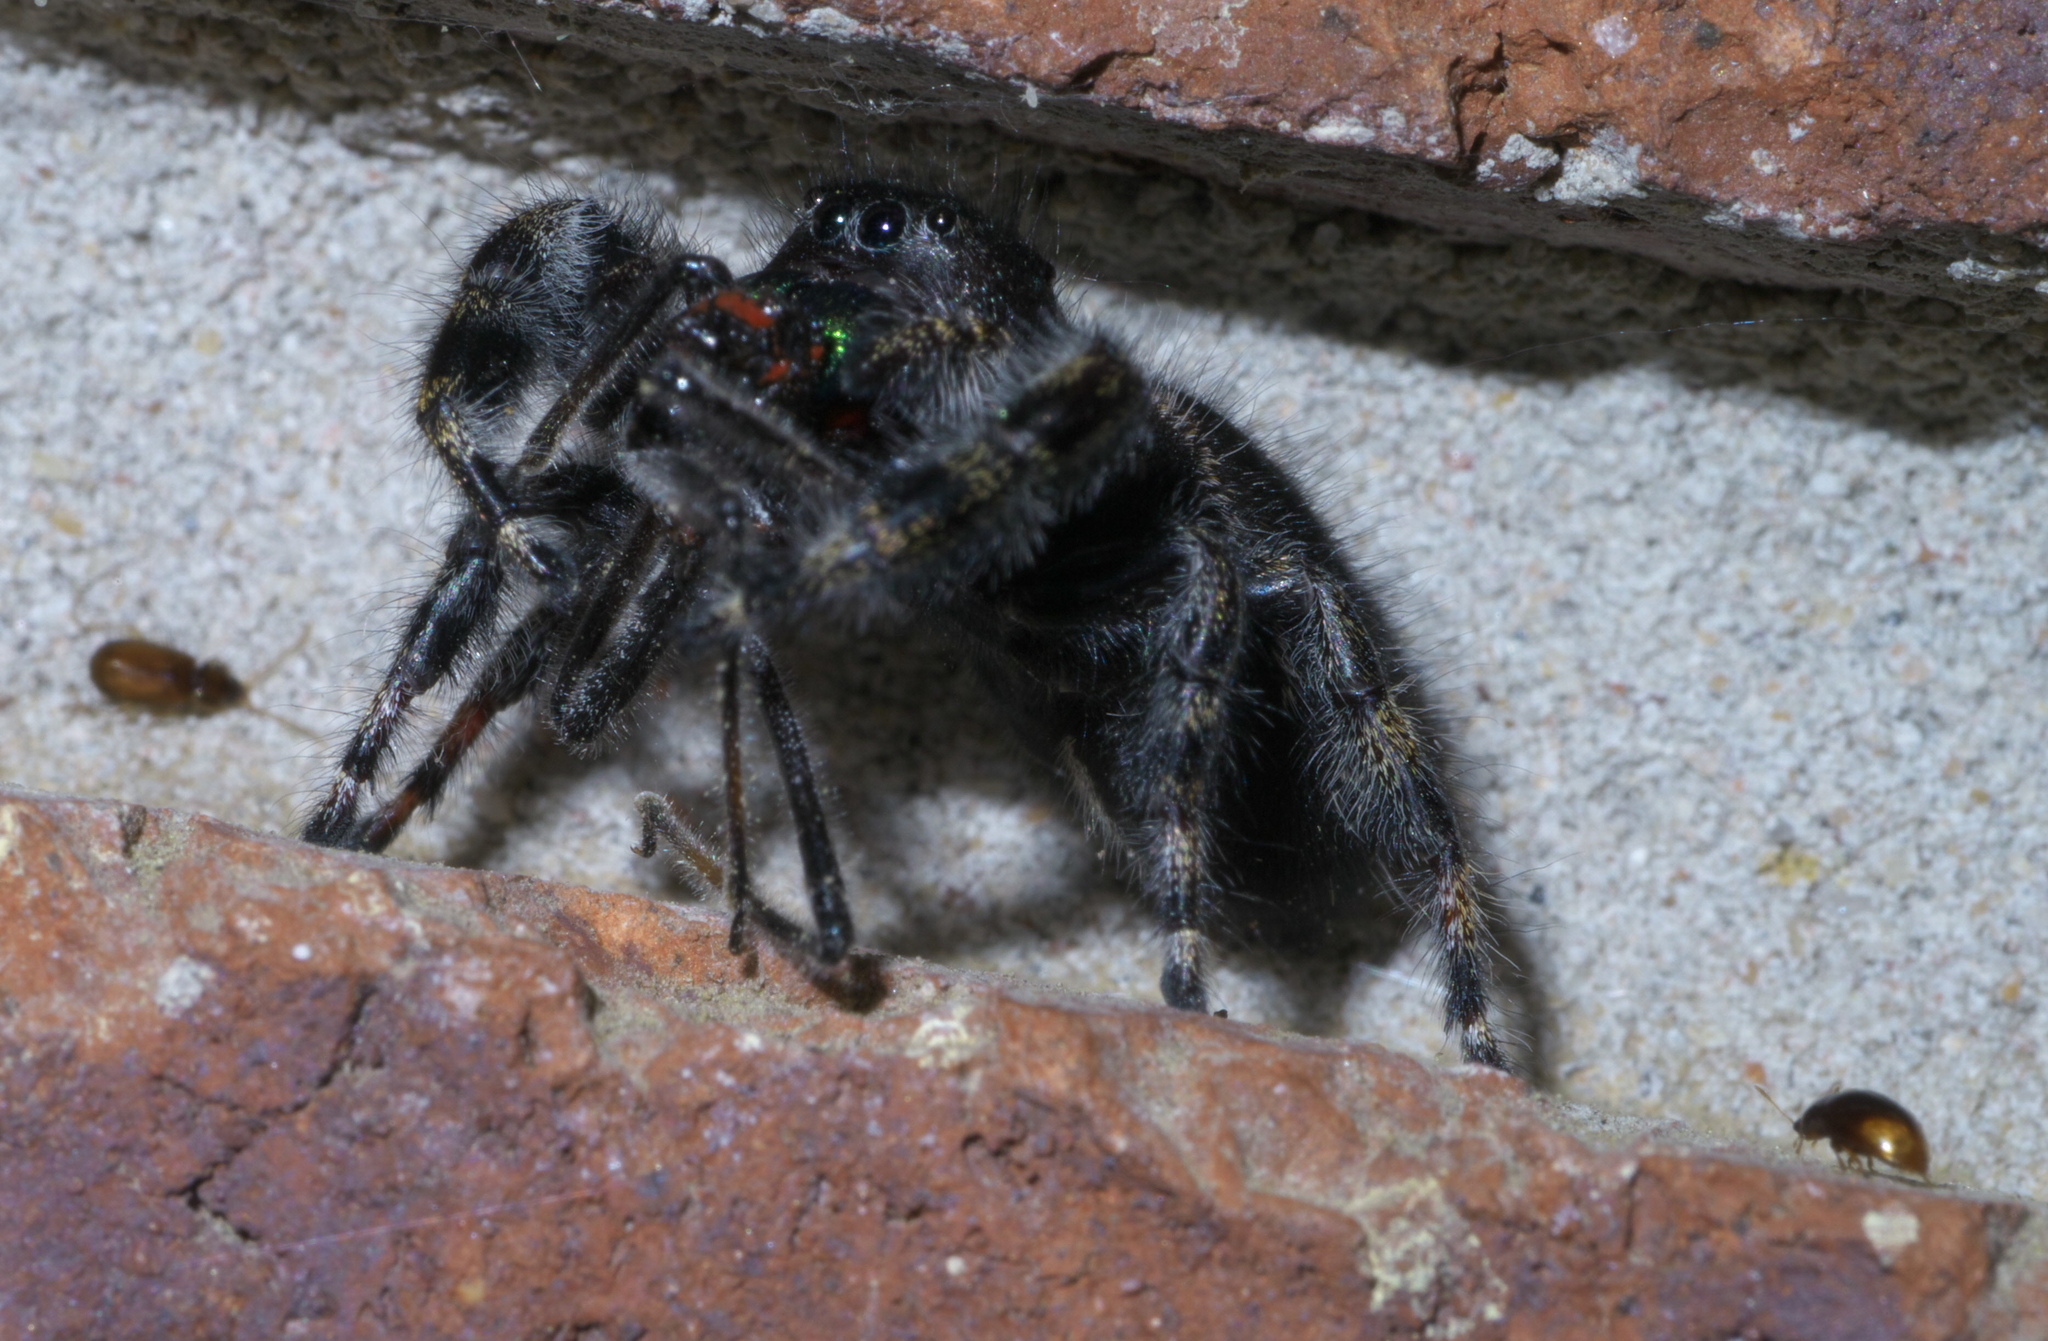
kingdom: Animalia
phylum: Arthropoda
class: Arachnida
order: Araneae
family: Salticidae
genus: Phidippus
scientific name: Phidippus audax
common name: Bold jumper
